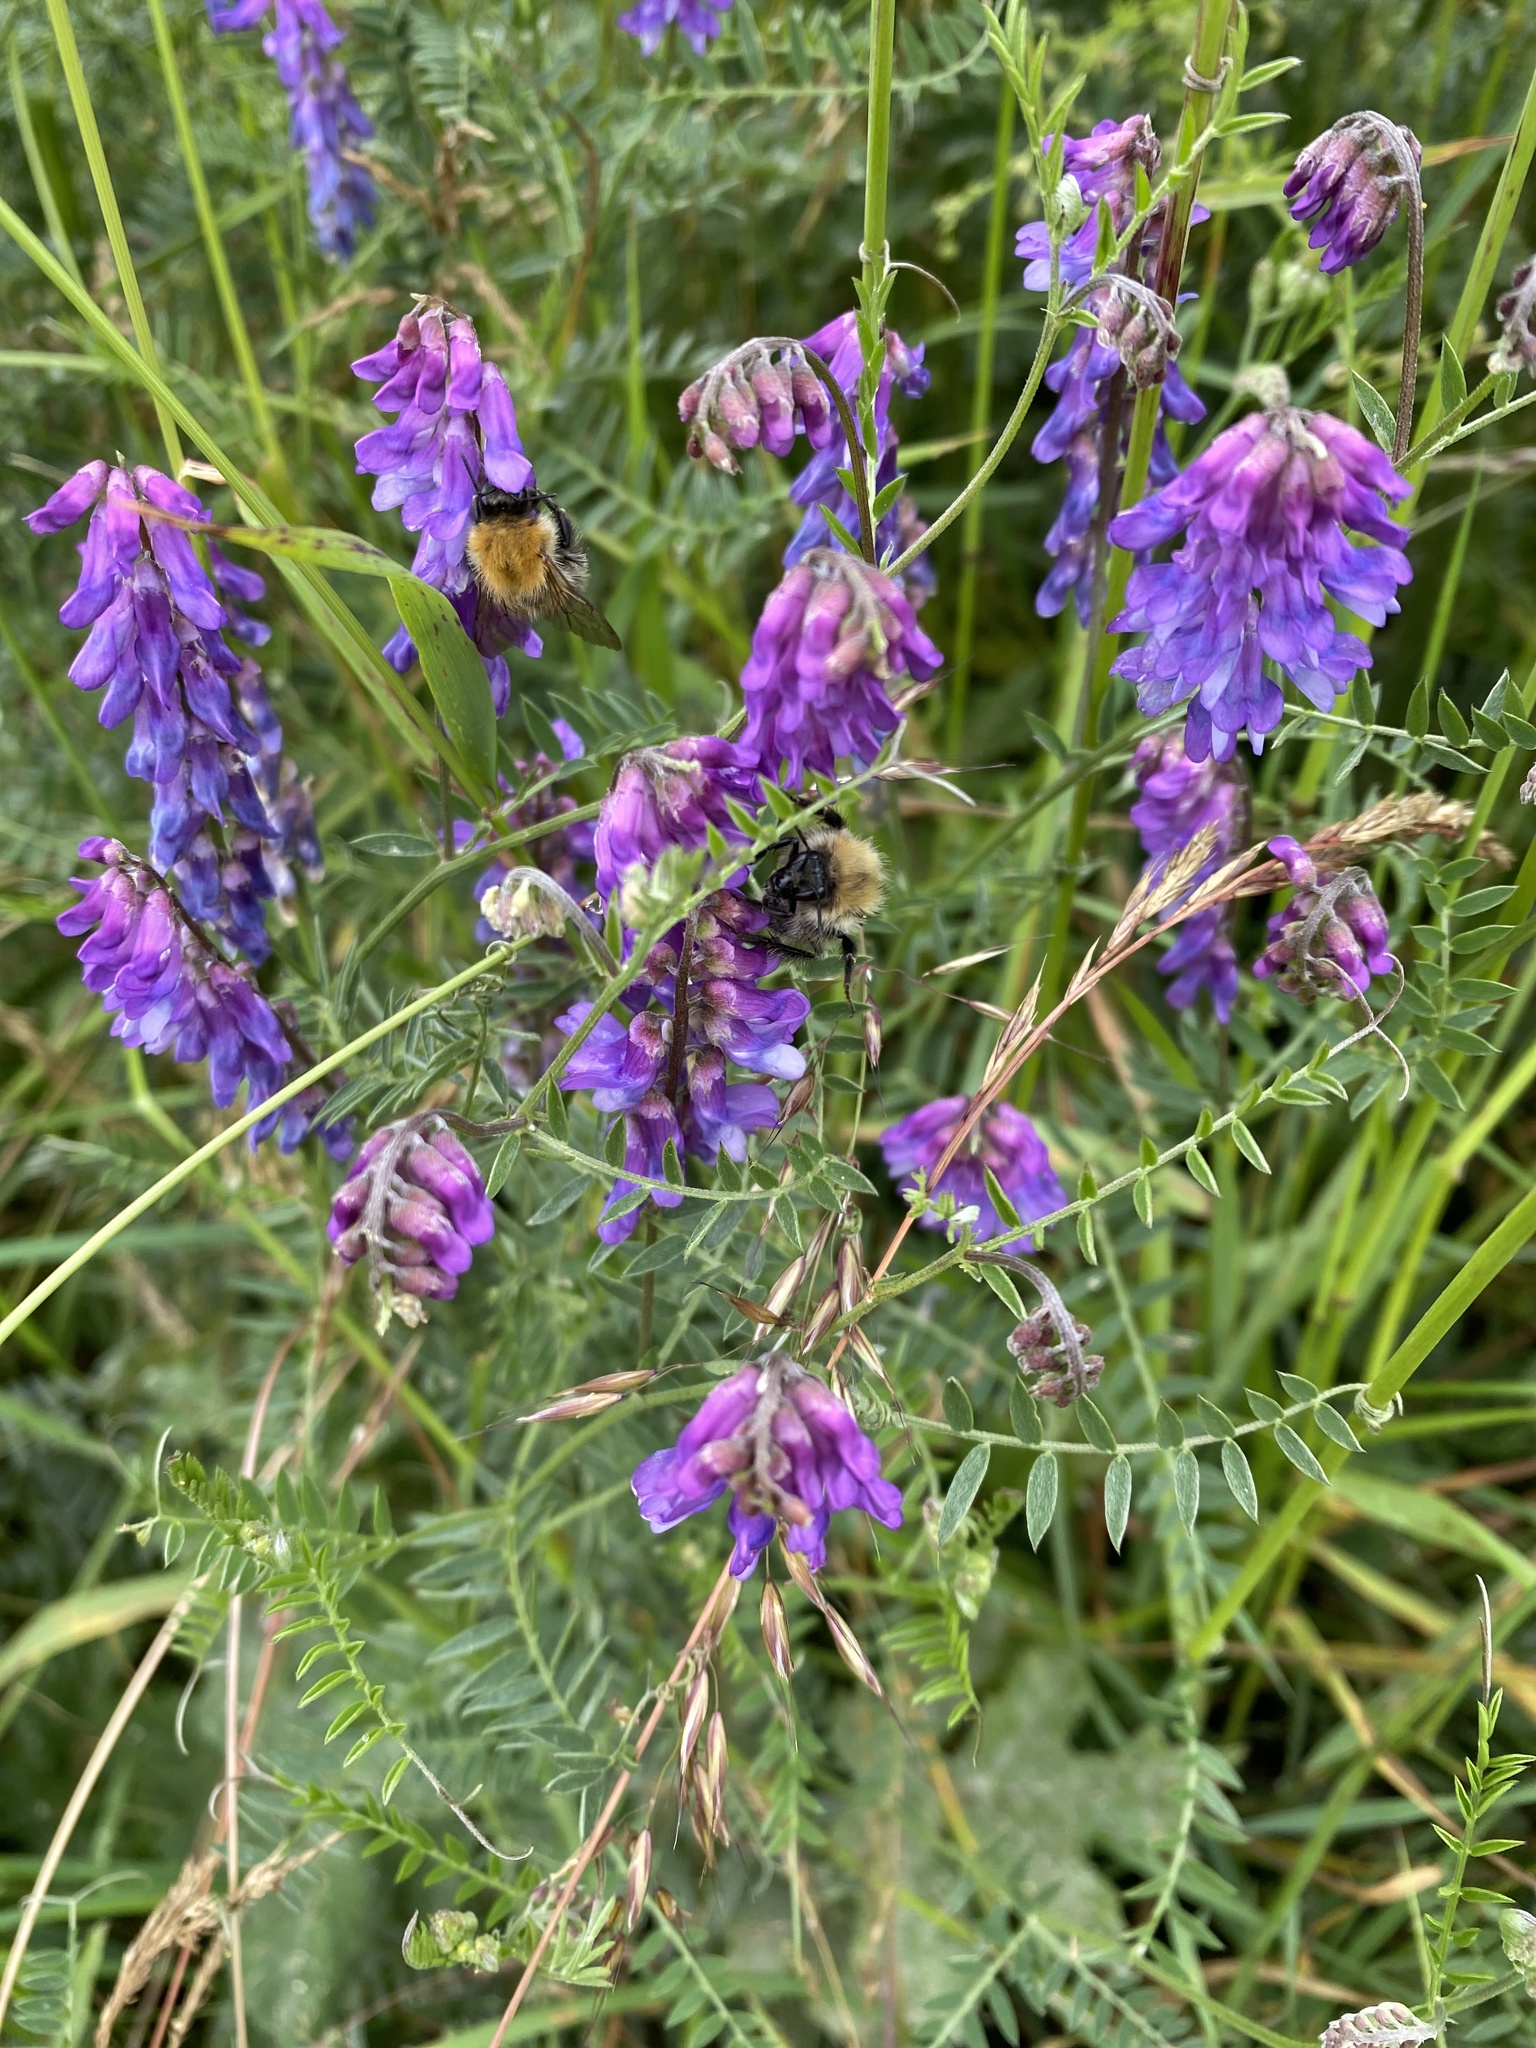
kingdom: Plantae
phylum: Tracheophyta
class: Magnoliopsida
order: Fabales
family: Fabaceae
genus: Vicia
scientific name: Vicia cracca
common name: Bird vetch
